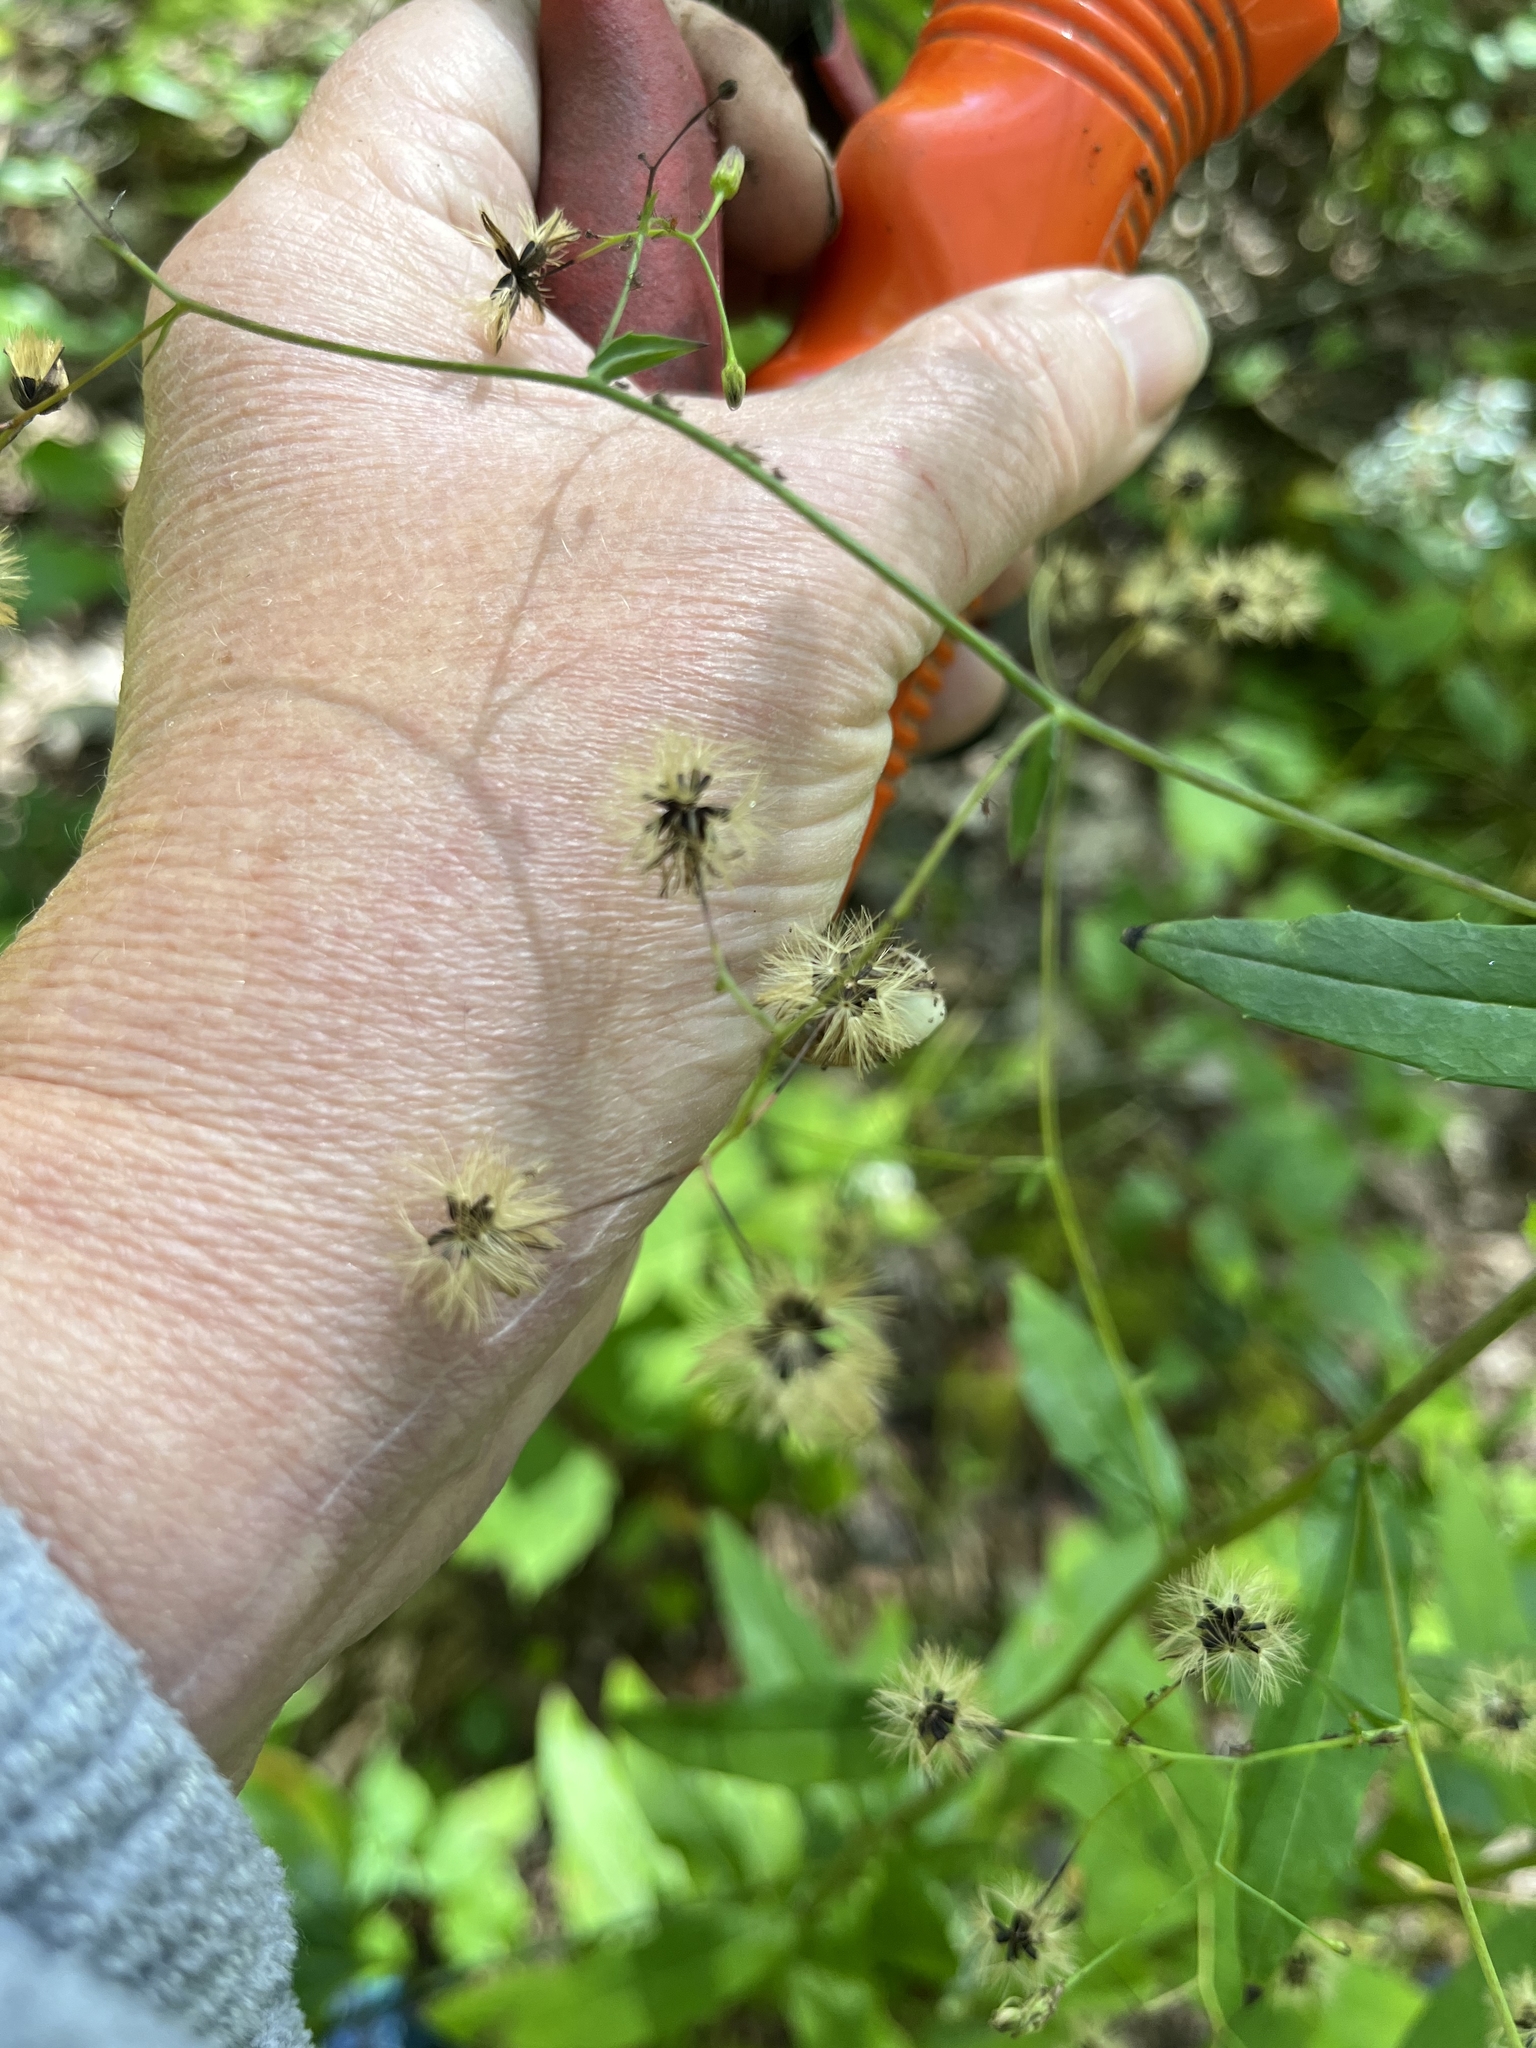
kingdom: Plantae
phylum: Tracheophyta
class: Magnoliopsida
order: Asterales
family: Asteraceae
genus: Hieracium
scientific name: Hieracium paniculatum
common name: Allegheny hawkweed
